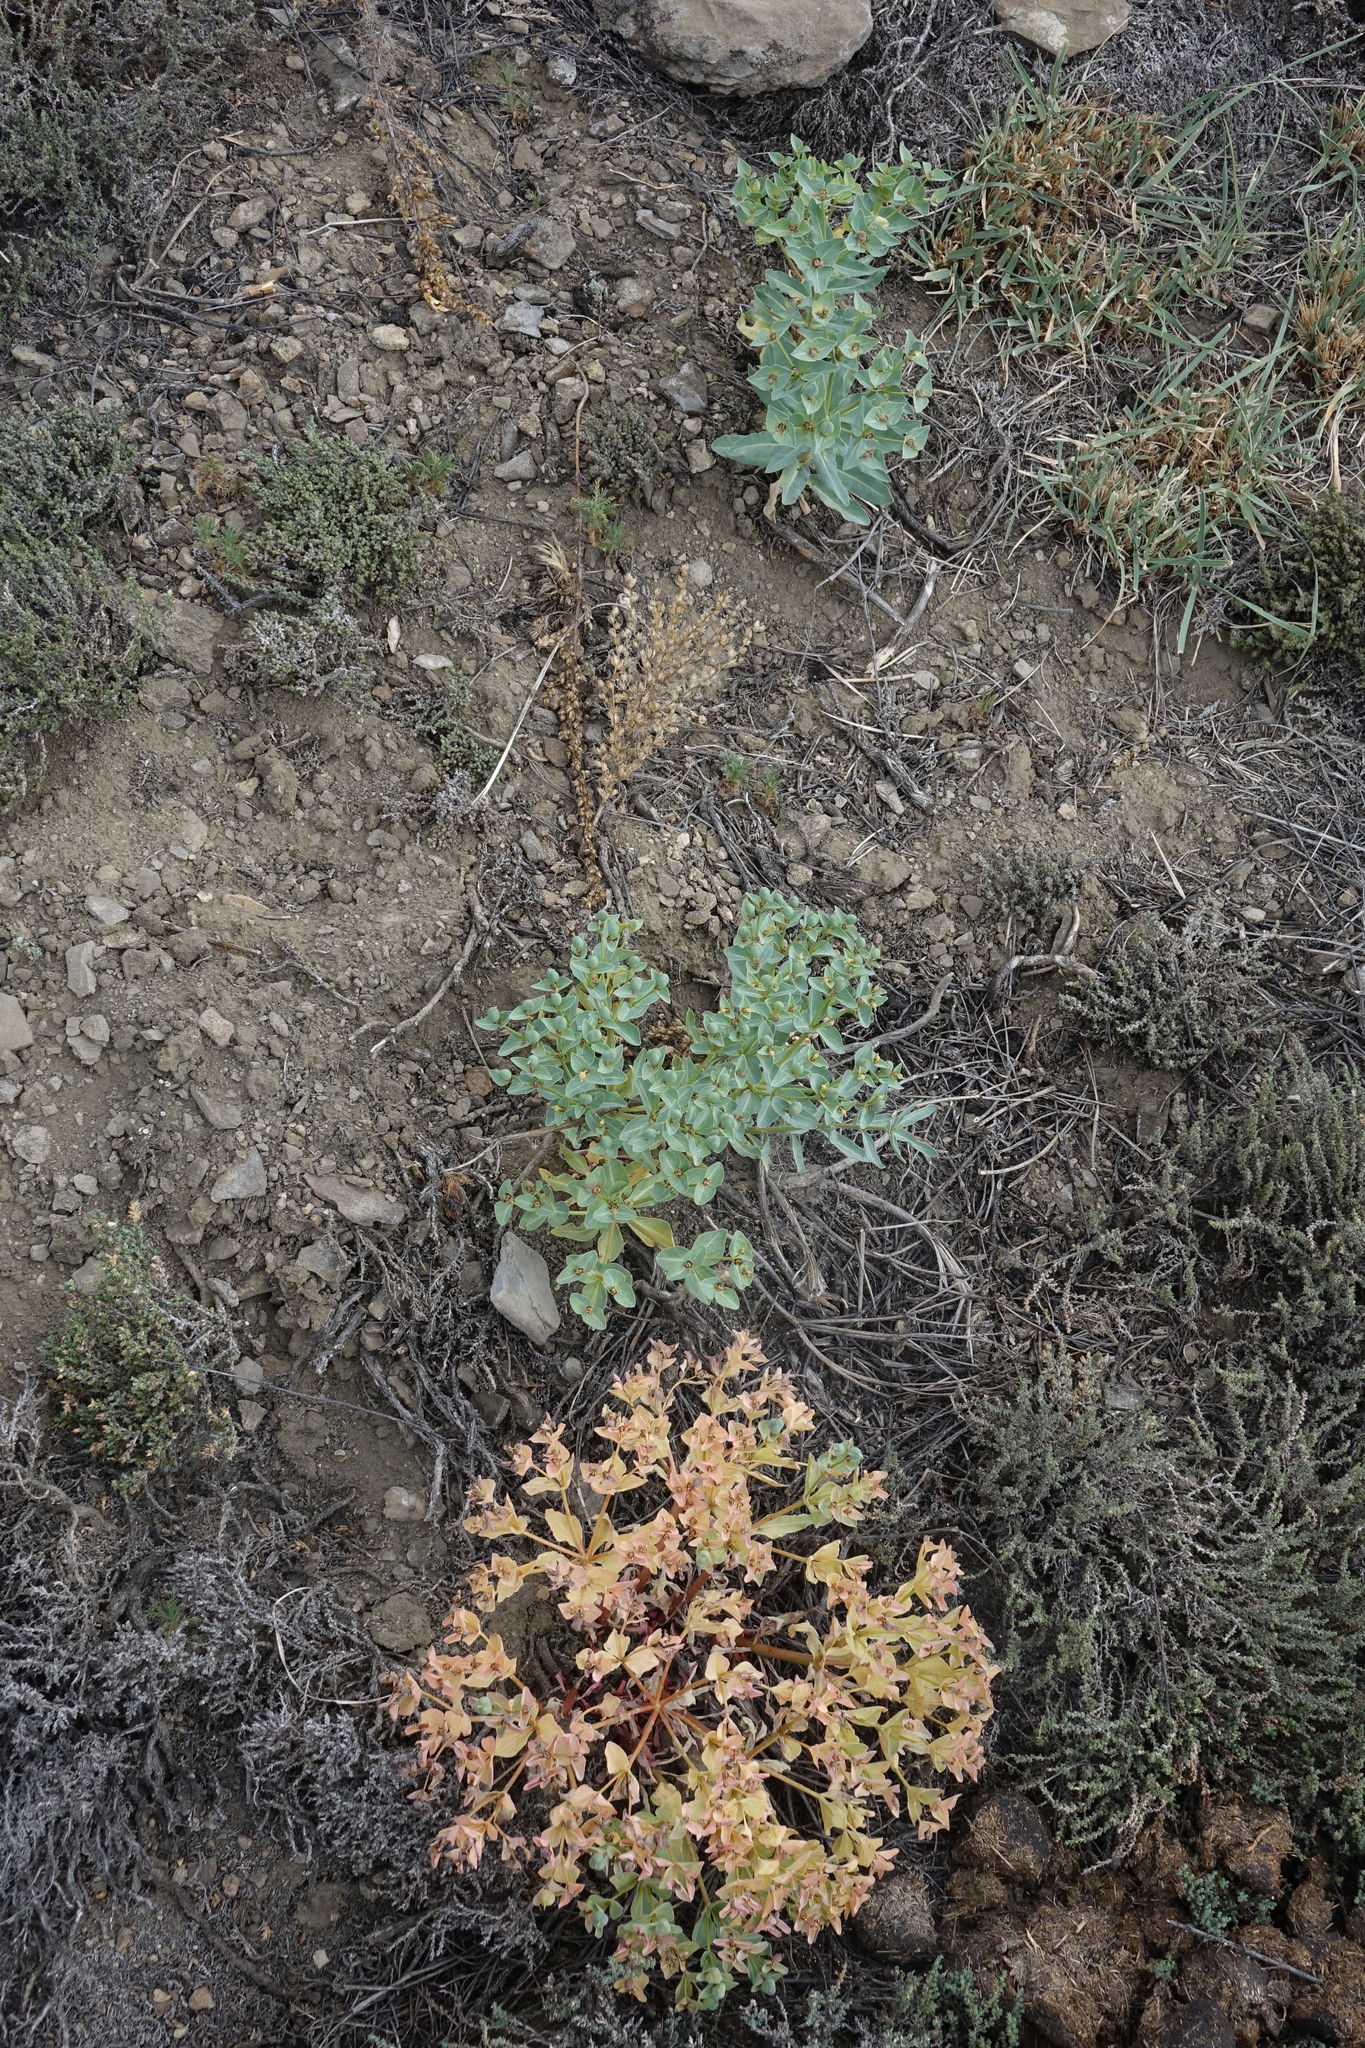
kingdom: Plantae
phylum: Tracheophyta
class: Magnoliopsida
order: Malpighiales
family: Euphorbiaceae
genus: Euphorbia
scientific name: Euphorbia mongolica
